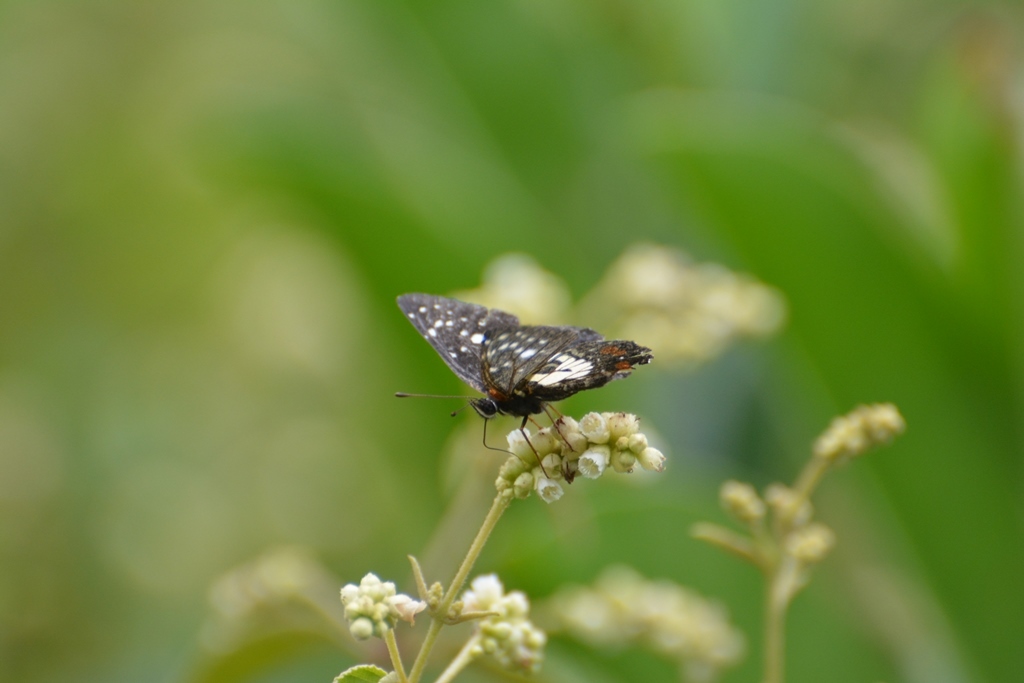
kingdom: Animalia
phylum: Arthropoda
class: Insecta
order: Lepidoptera
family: Nymphalidae
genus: Chlosyne
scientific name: Chlosyne rosita
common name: Rosita patch
